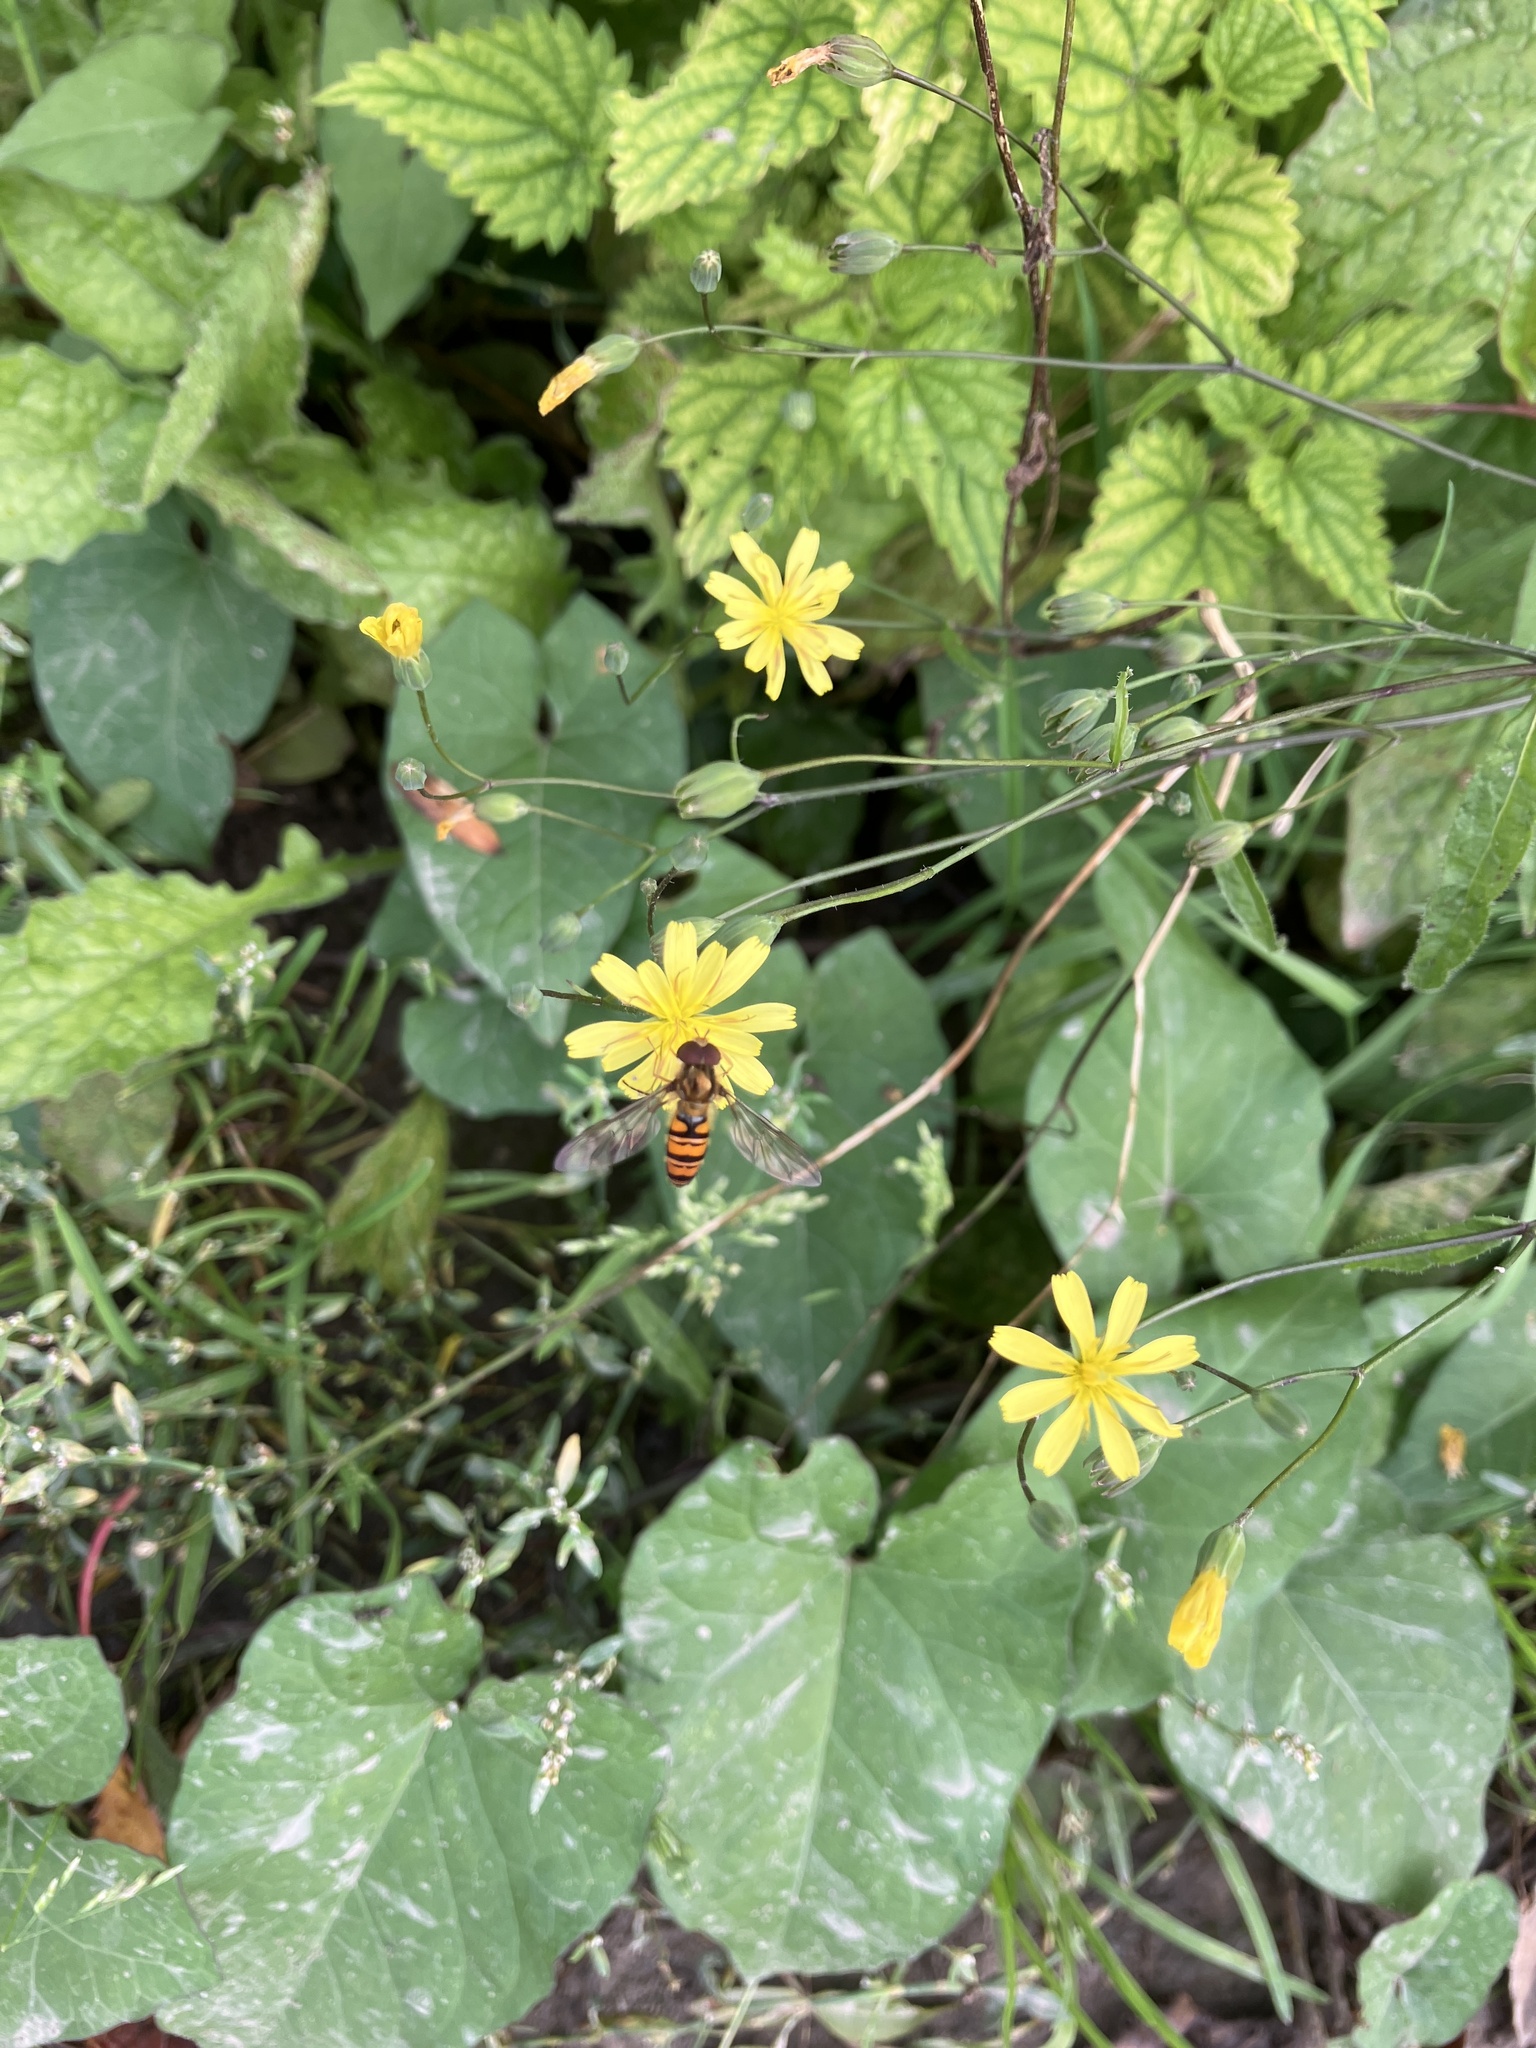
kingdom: Plantae
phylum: Tracheophyta
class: Magnoliopsida
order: Asterales
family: Asteraceae
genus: Lapsana
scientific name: Lapsana communis
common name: Nipplewort
